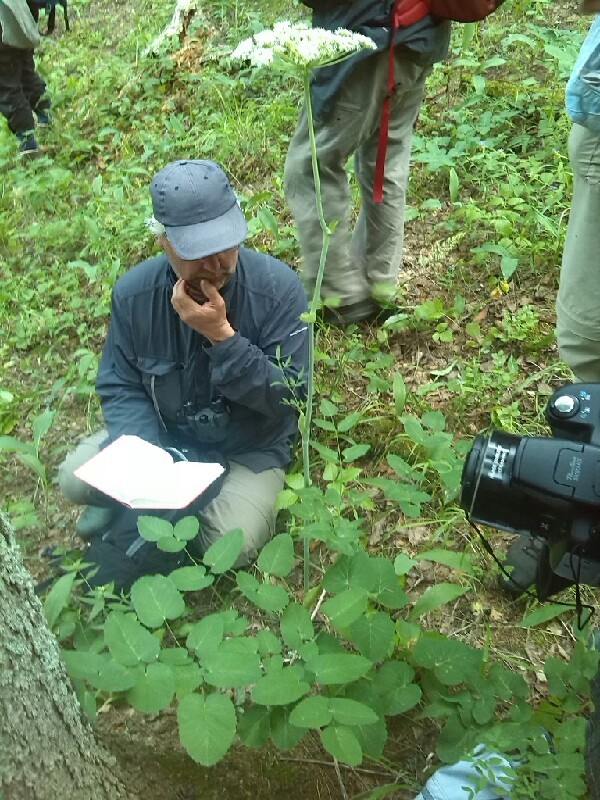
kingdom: Plantae
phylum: Tracheophyta
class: Magnoliopsida
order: Apiales
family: Apiaceae
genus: Laserpitium
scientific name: Laserpitium latifolium
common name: Broadleaf sermountain
